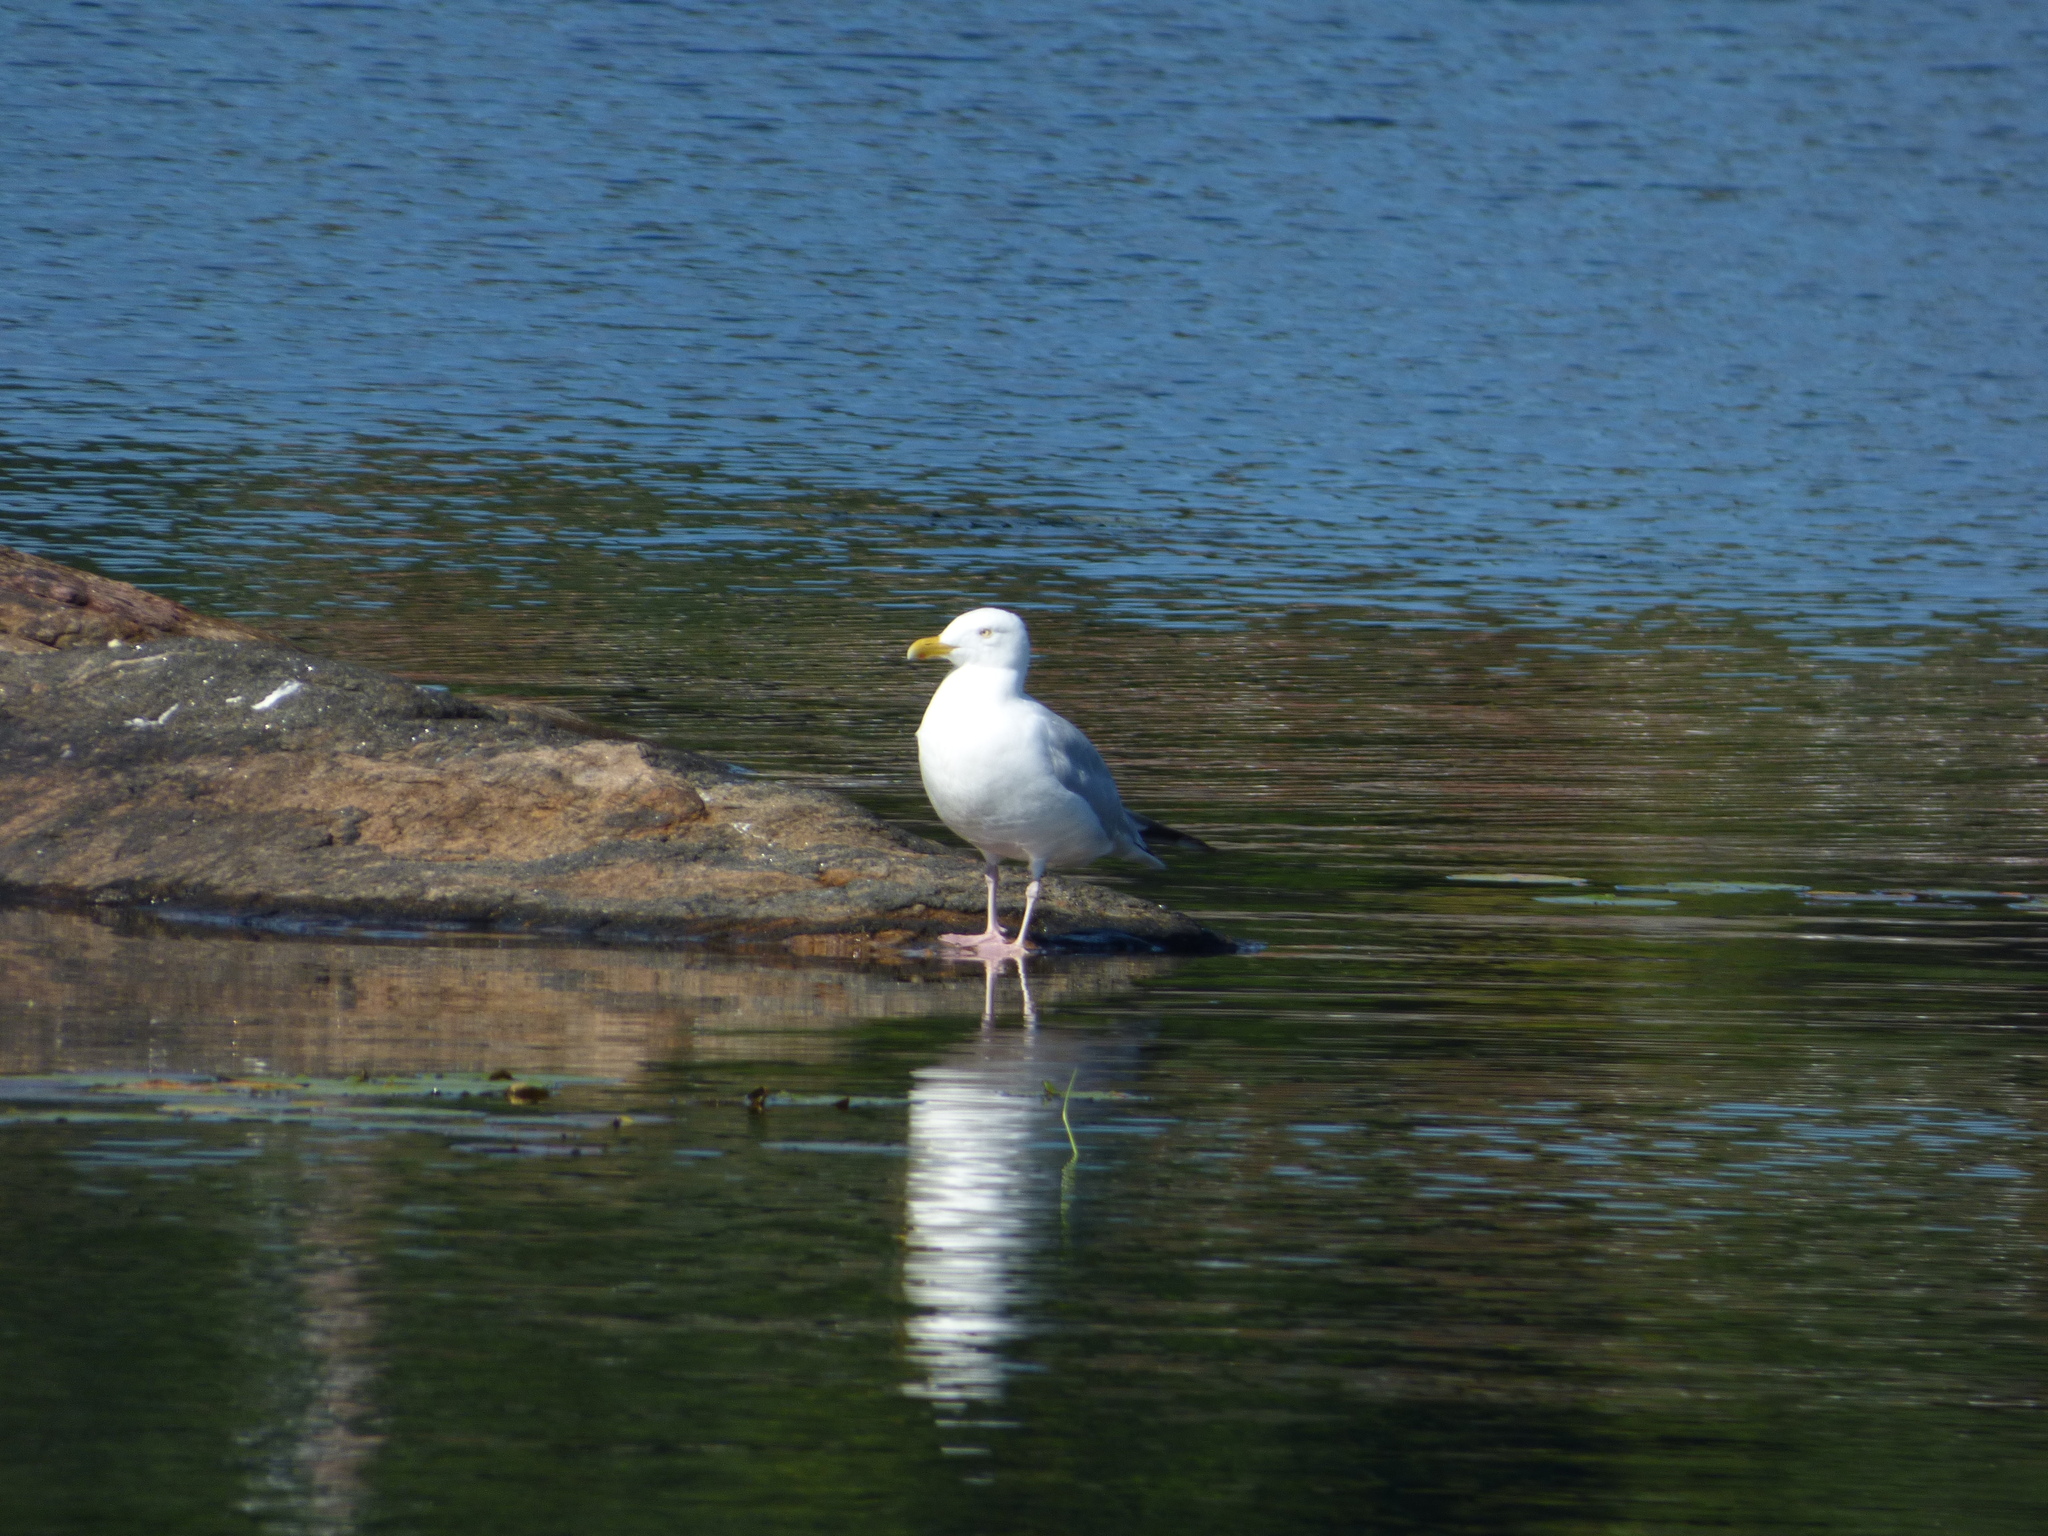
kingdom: Animalia
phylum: Chordata
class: Aves
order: Charadriiformes
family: Laridae
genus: Larus
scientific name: Larus argentatus
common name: Herring gull
